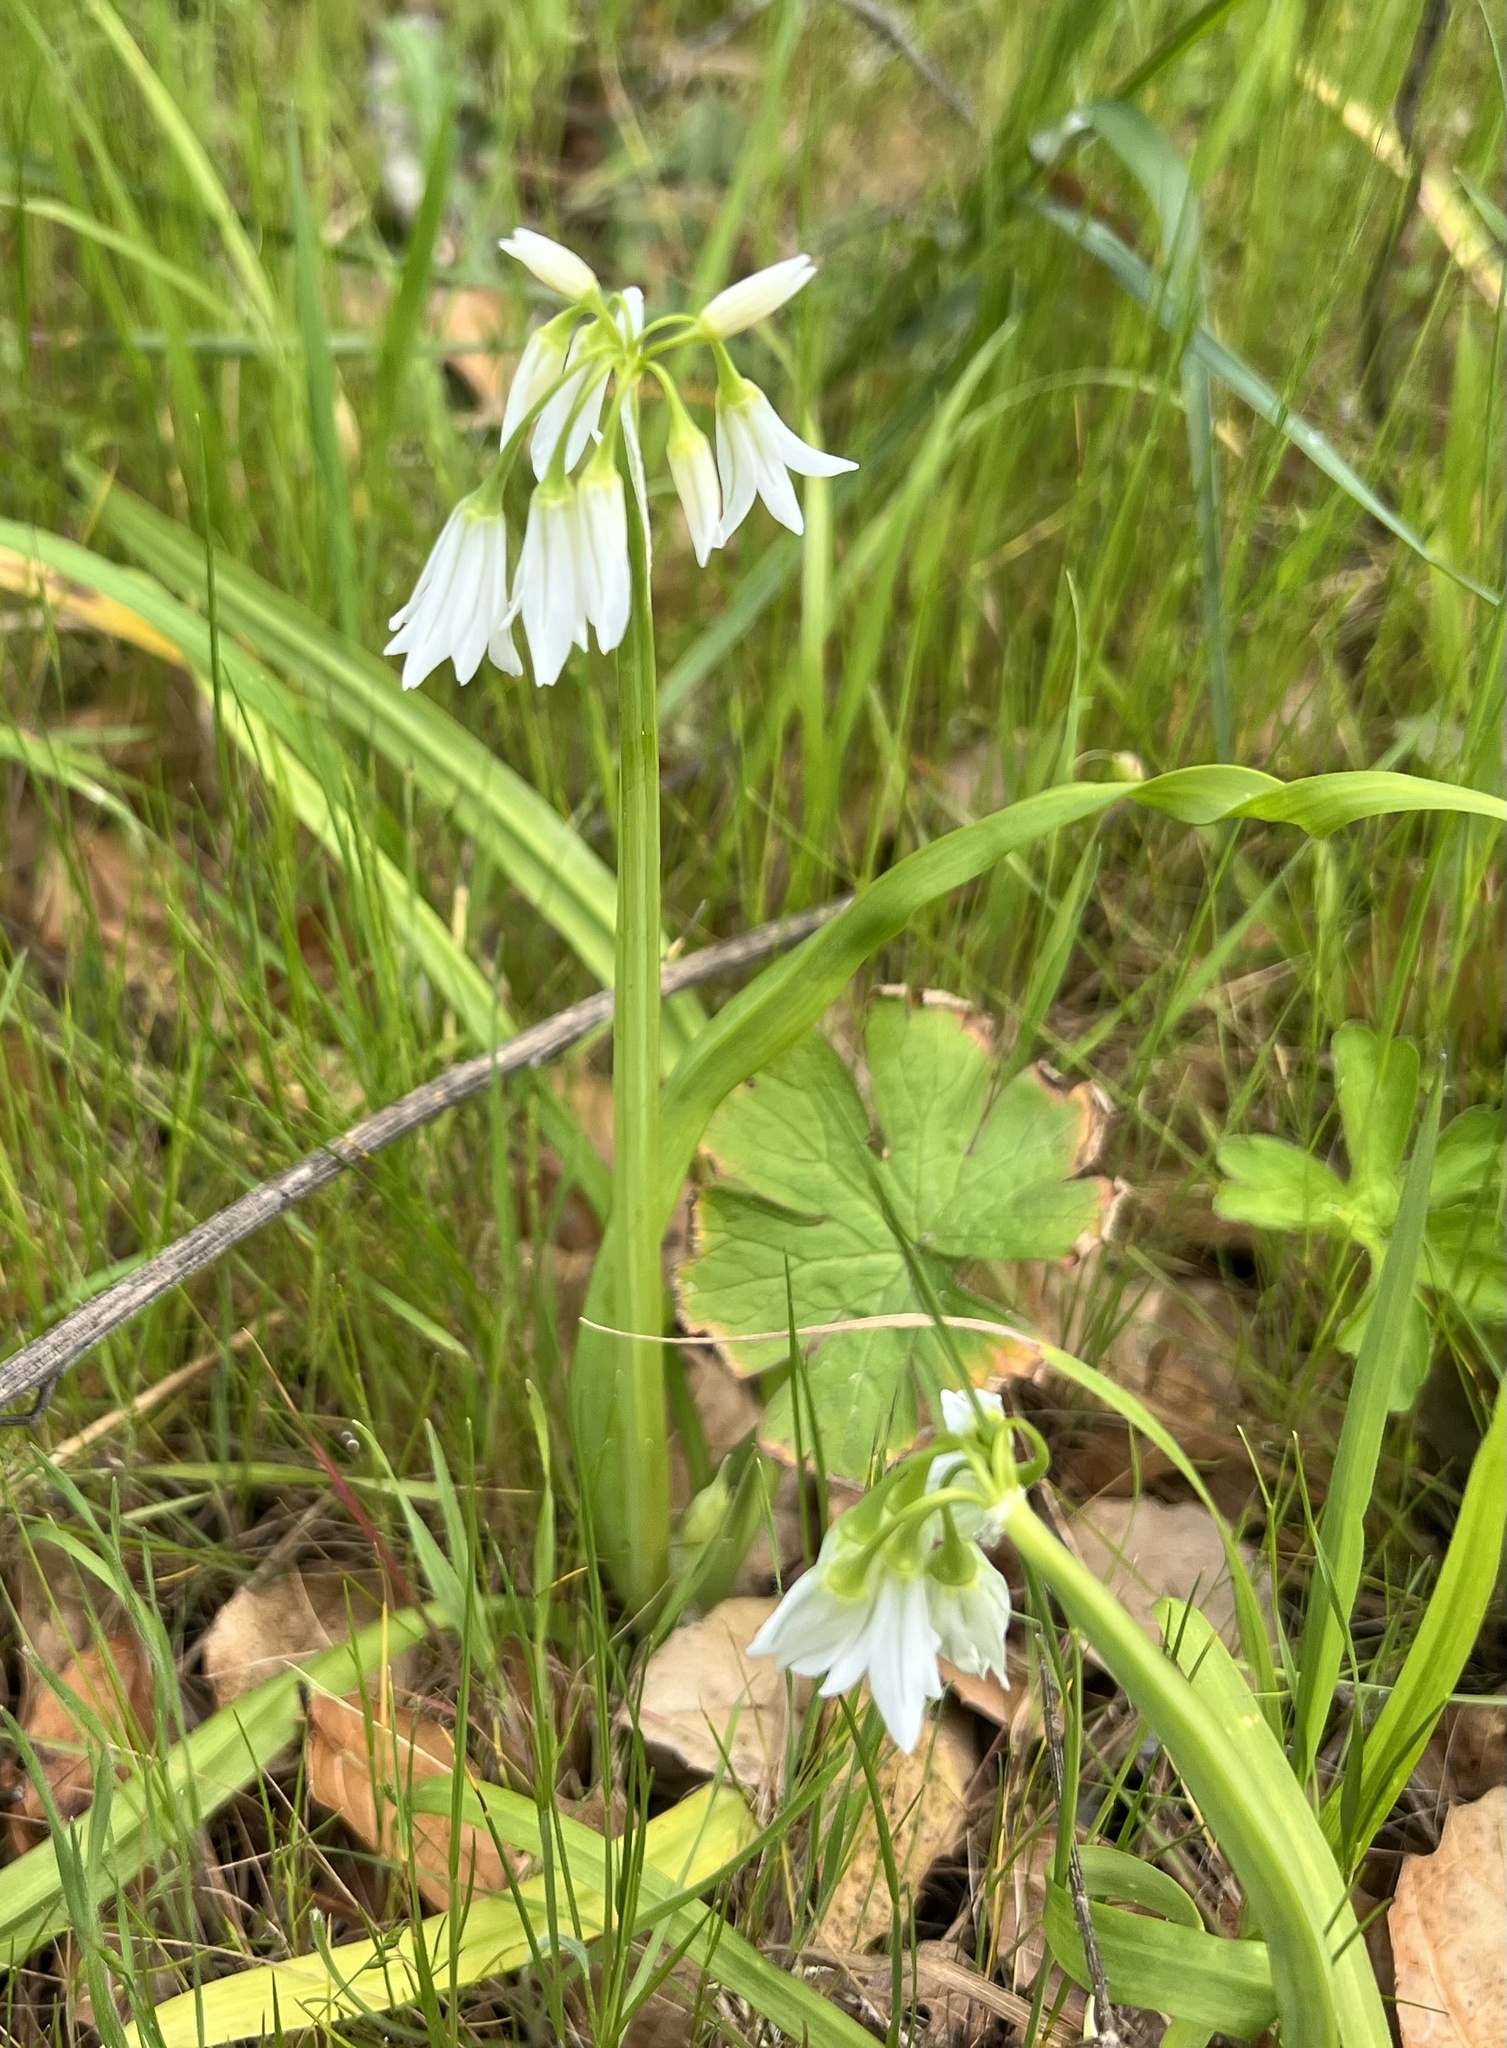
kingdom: Plantae
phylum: Tracheophyta
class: Liliopsida
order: Asparagales
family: Amaryllidaceae
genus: Allium
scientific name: Allium triquetrum
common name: Three-cornered garlic
